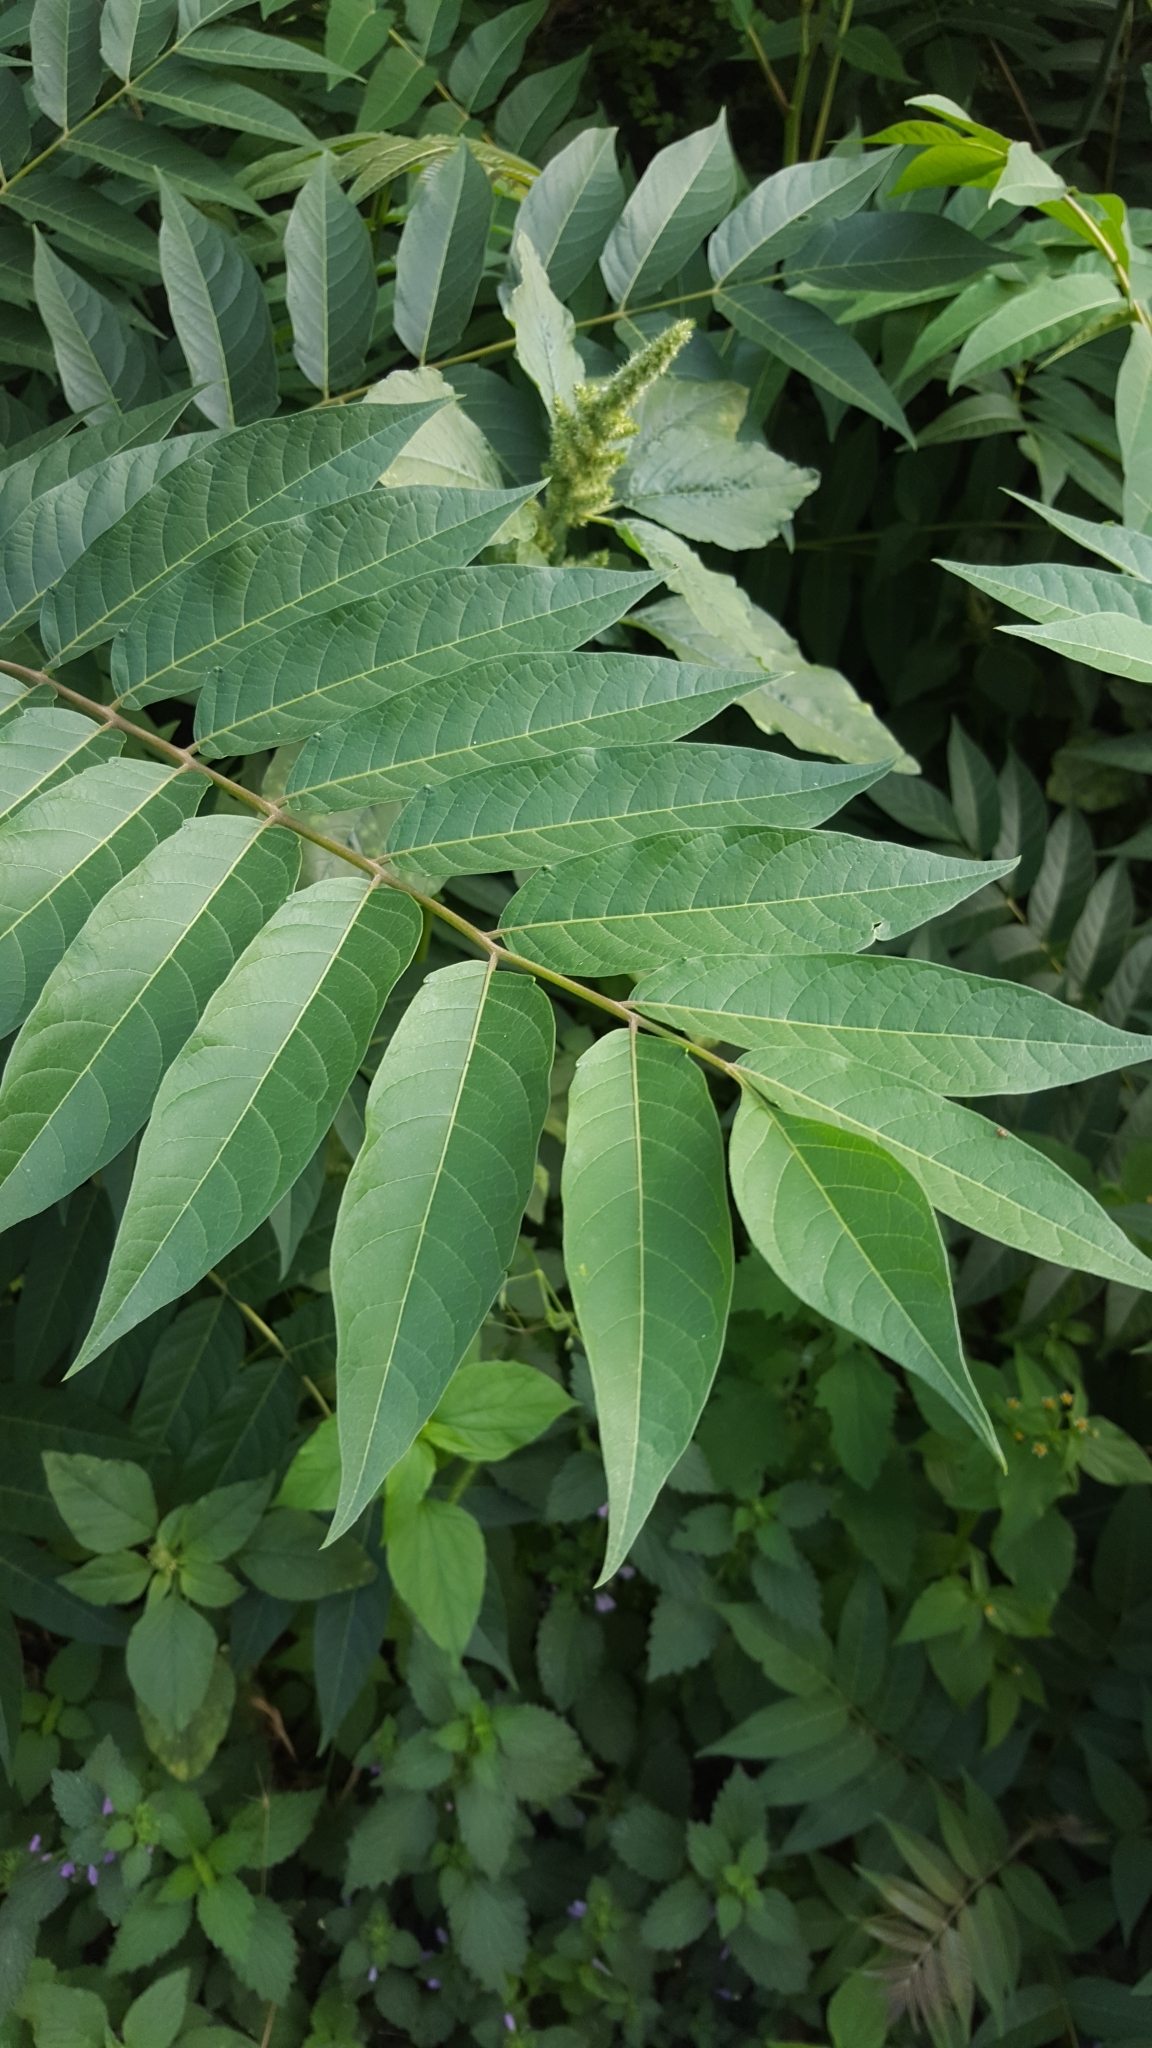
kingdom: Plantae
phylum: Tracheophyta
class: Magnoliopsida
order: Sapindales
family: Simaroubaceae
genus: Ailanthus
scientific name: Ailanthus altissima
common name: Tree-of-heaven
